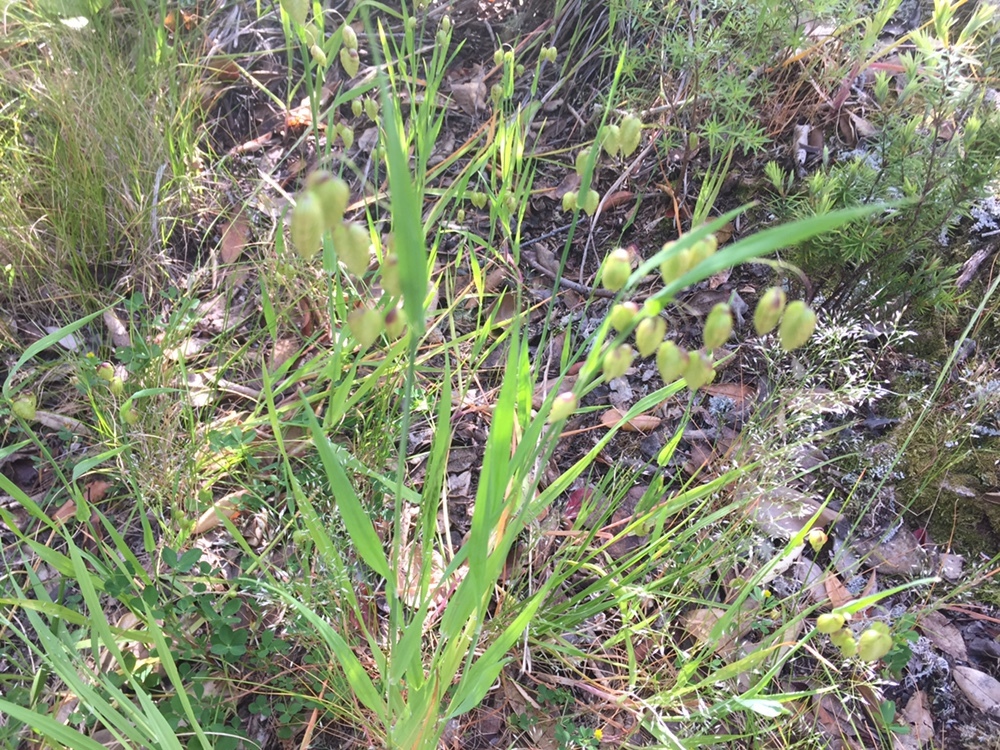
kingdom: Plantae
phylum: Tracheophyta
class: Liliopsida
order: Poales
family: Poaceae
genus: Briza
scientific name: Briza maxima
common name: Big quakinggrass
